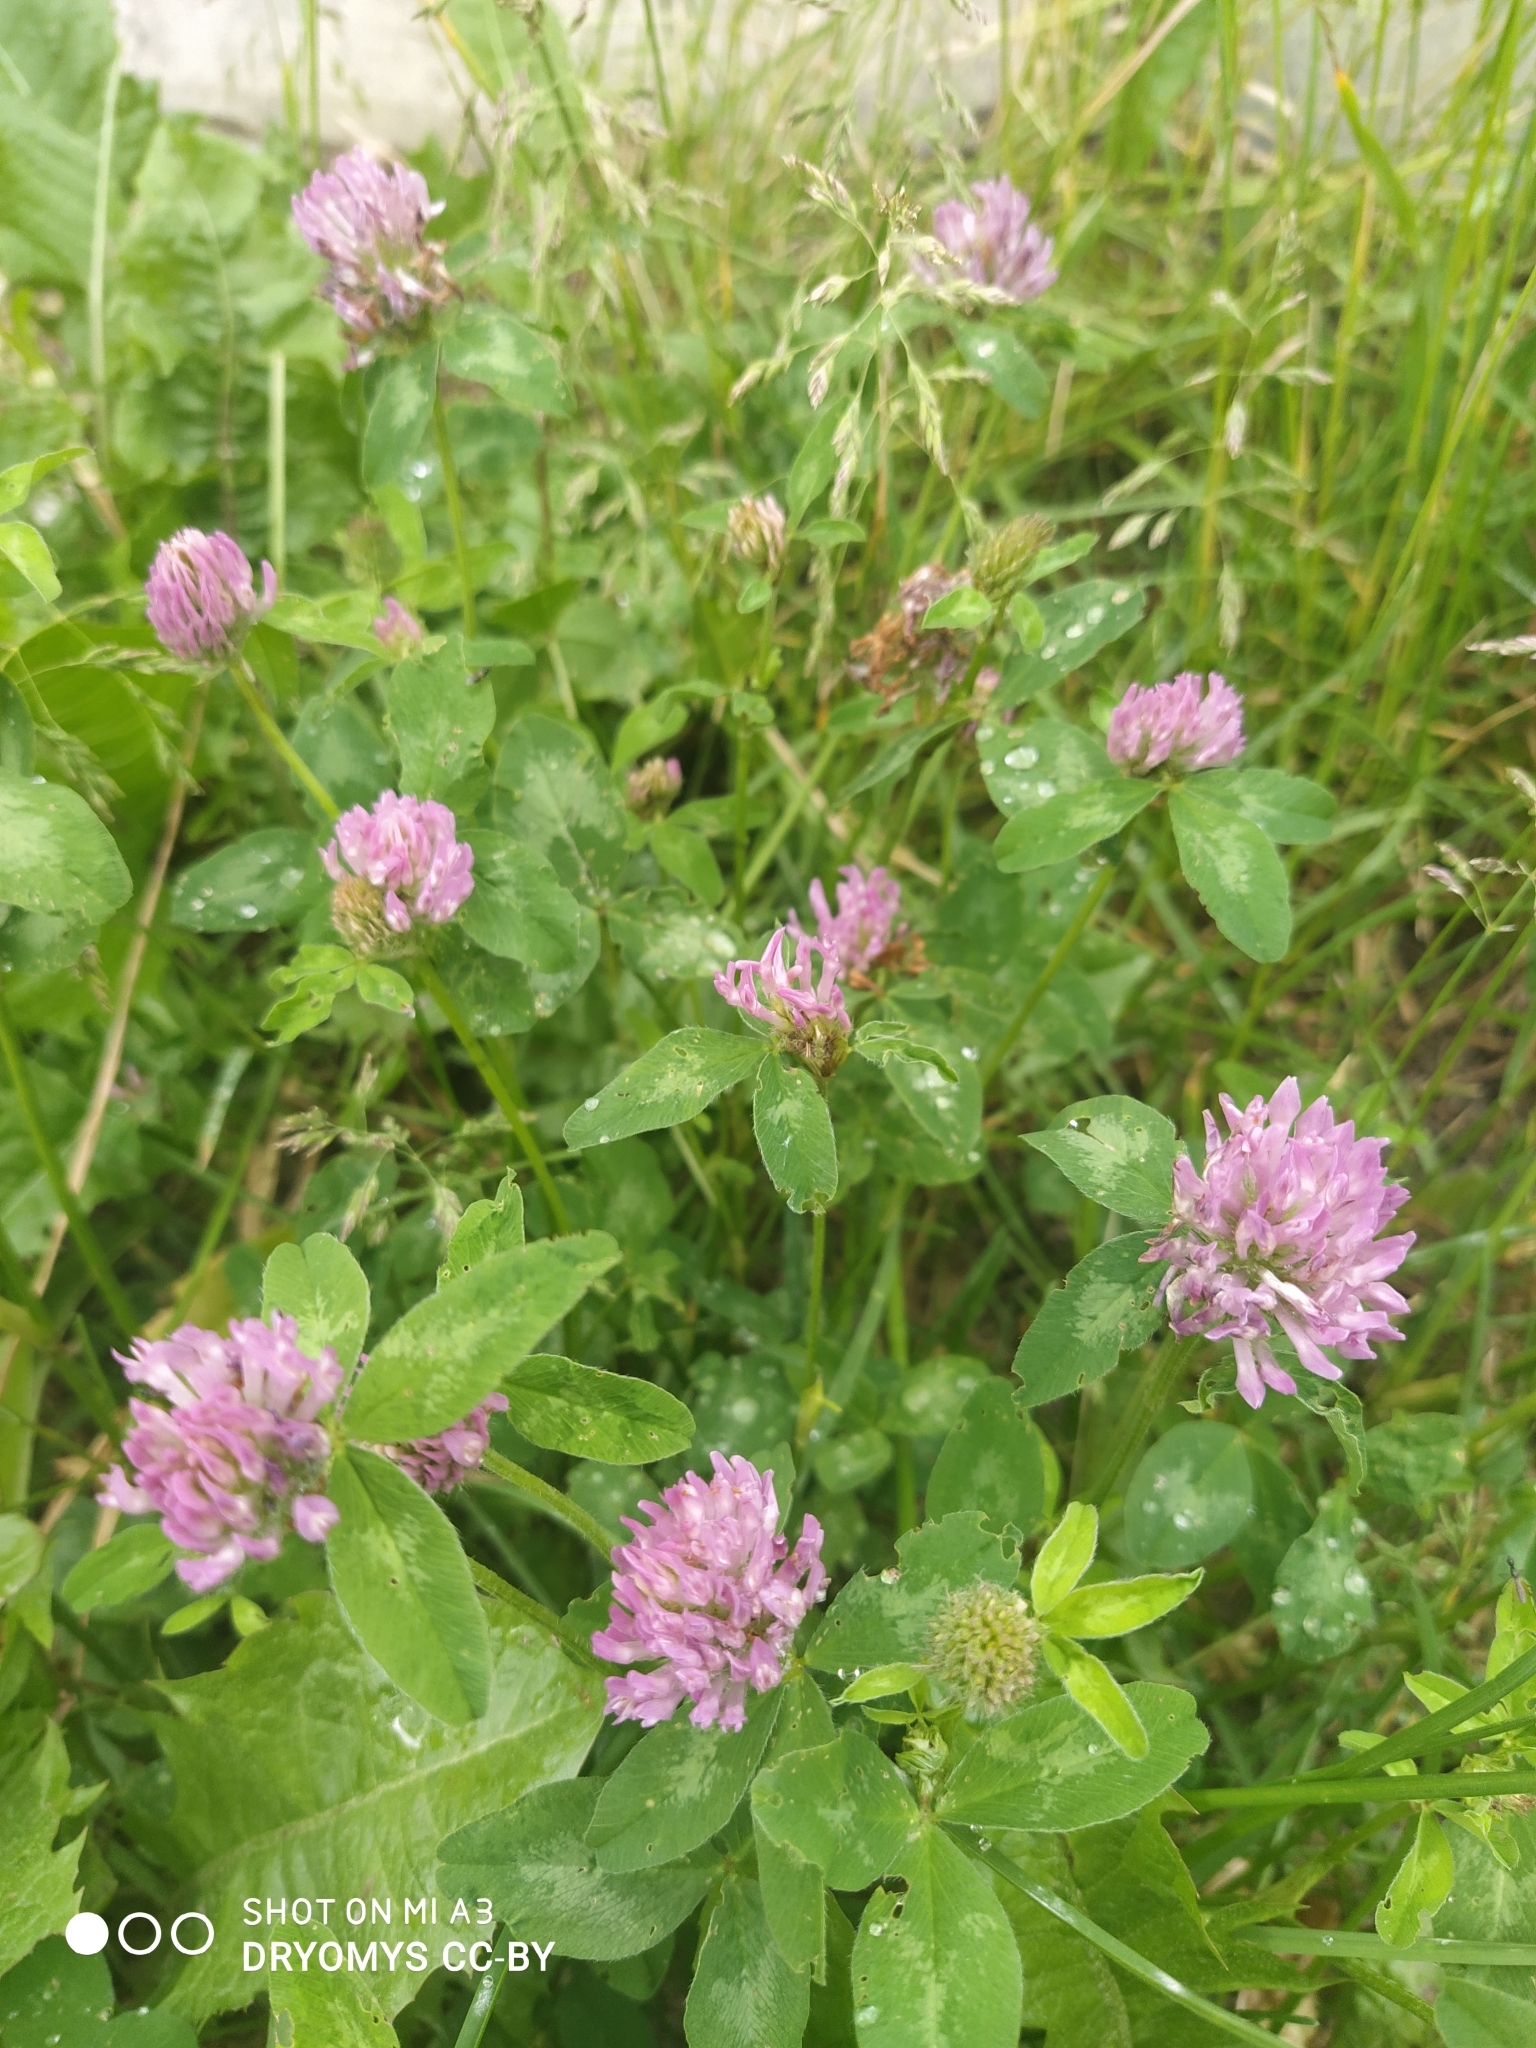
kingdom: Plantae
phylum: Tracheophyta
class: Magnoliopsida
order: Fabales
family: Fabaceae
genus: Trifolium
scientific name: Trifolium pratense
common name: Red clover
